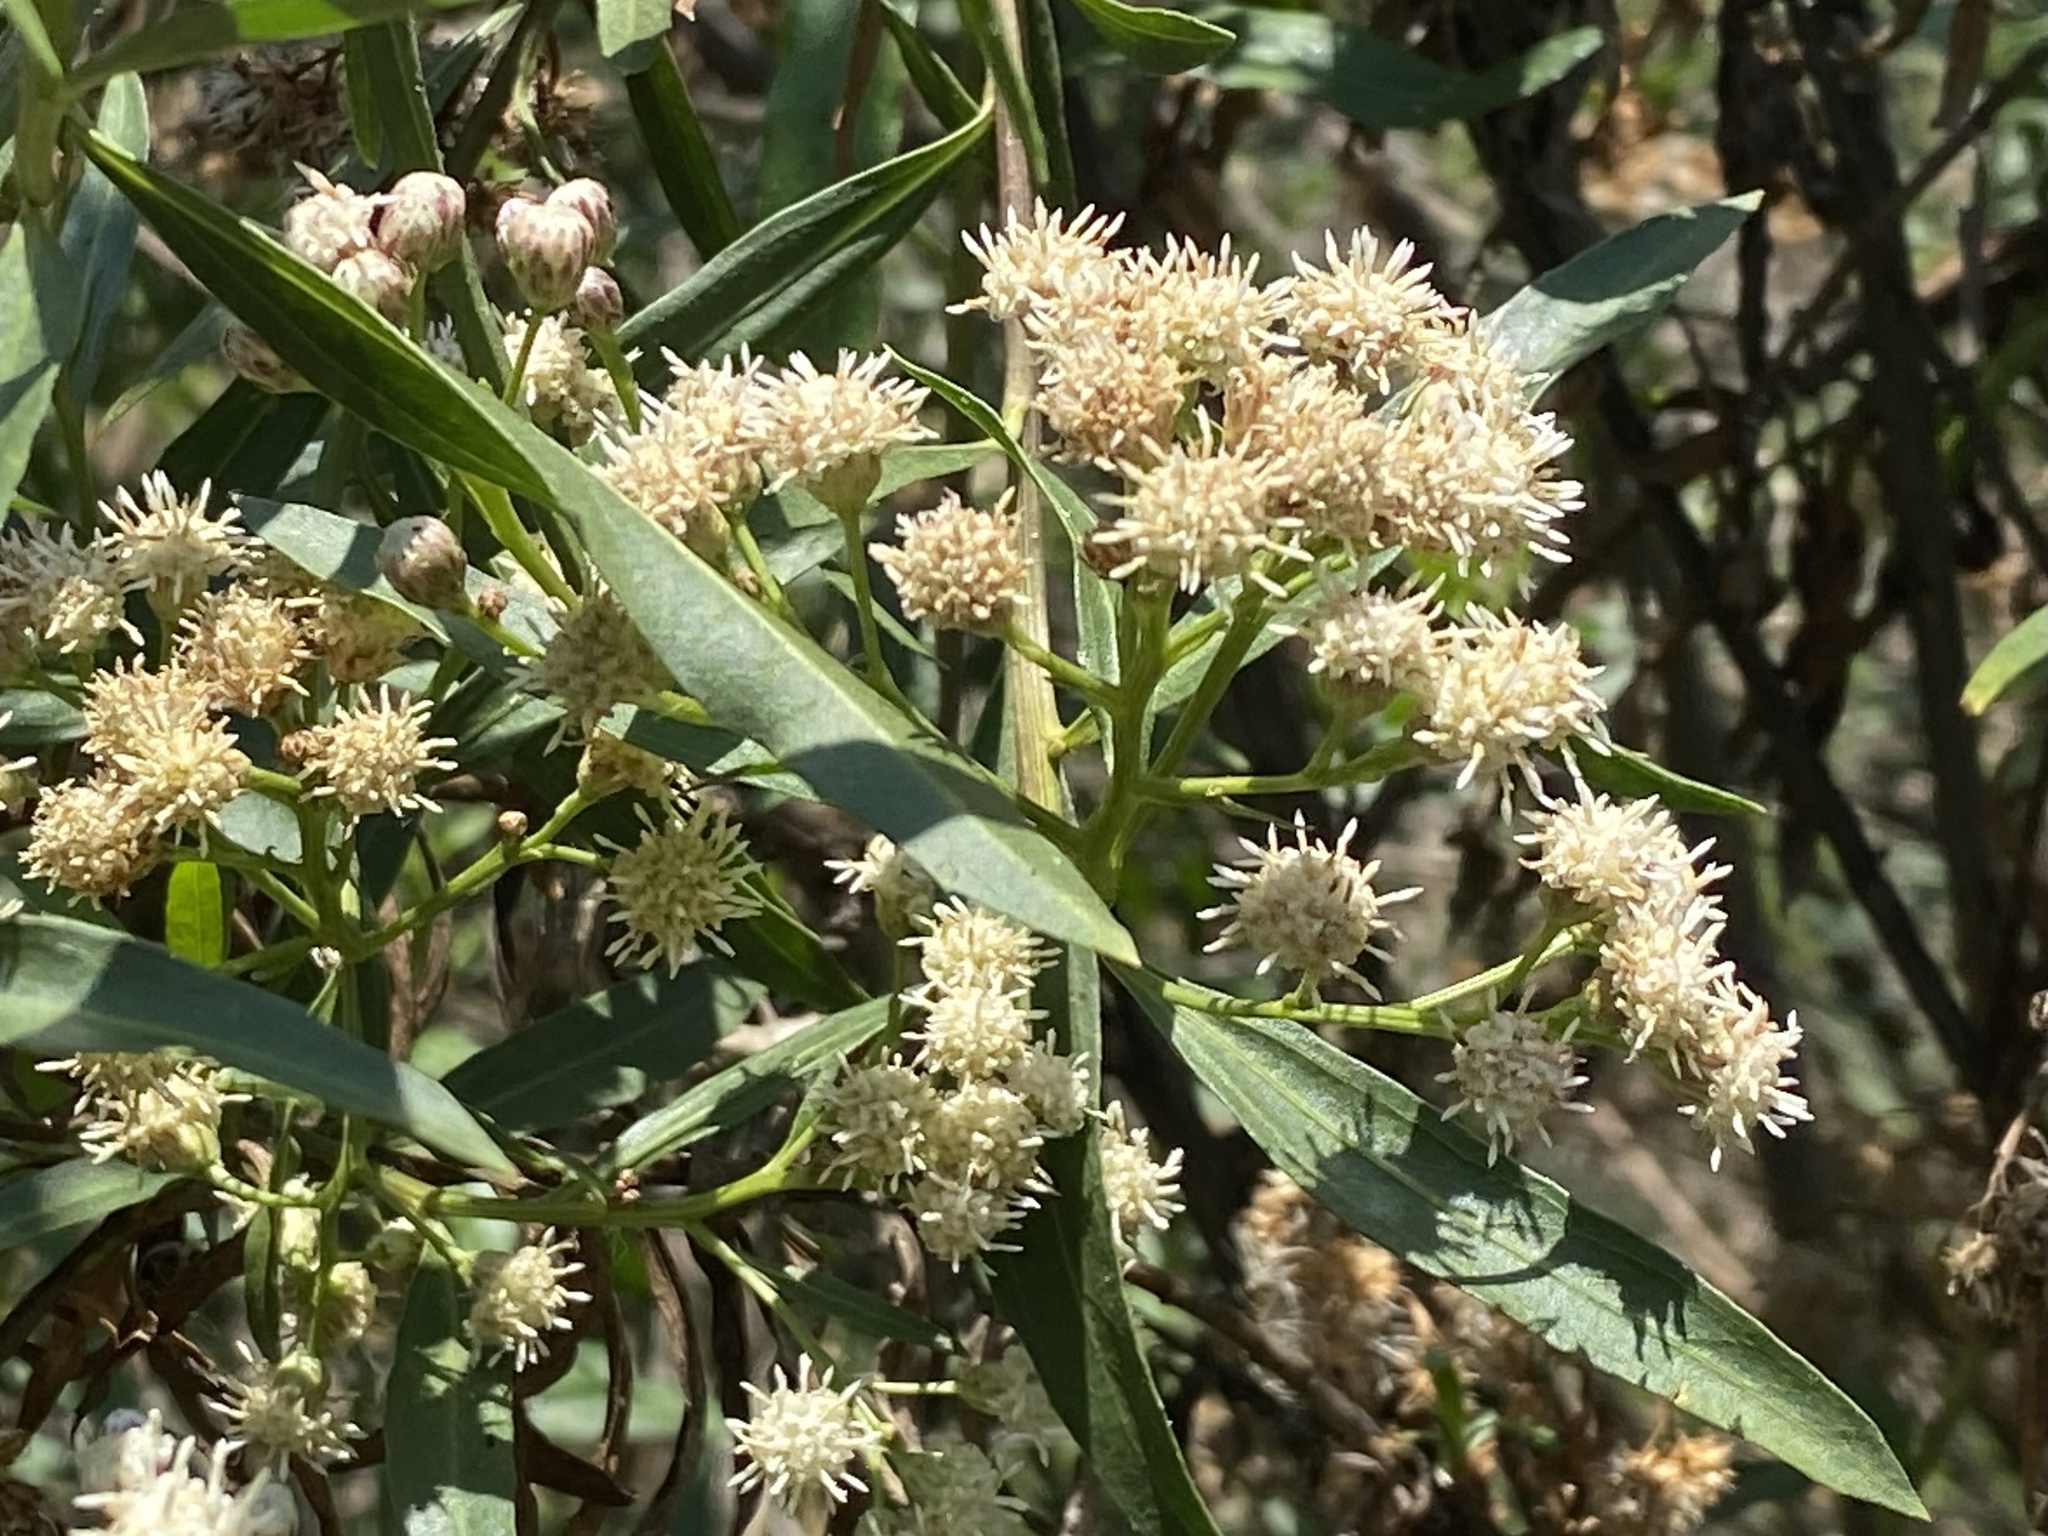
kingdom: Plantae
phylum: Tracheophyta
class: Magnoliopsida
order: Asterales
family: Asteraceae
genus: Baccharis
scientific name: Baccharis salicifolia
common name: Sticky baccharis
